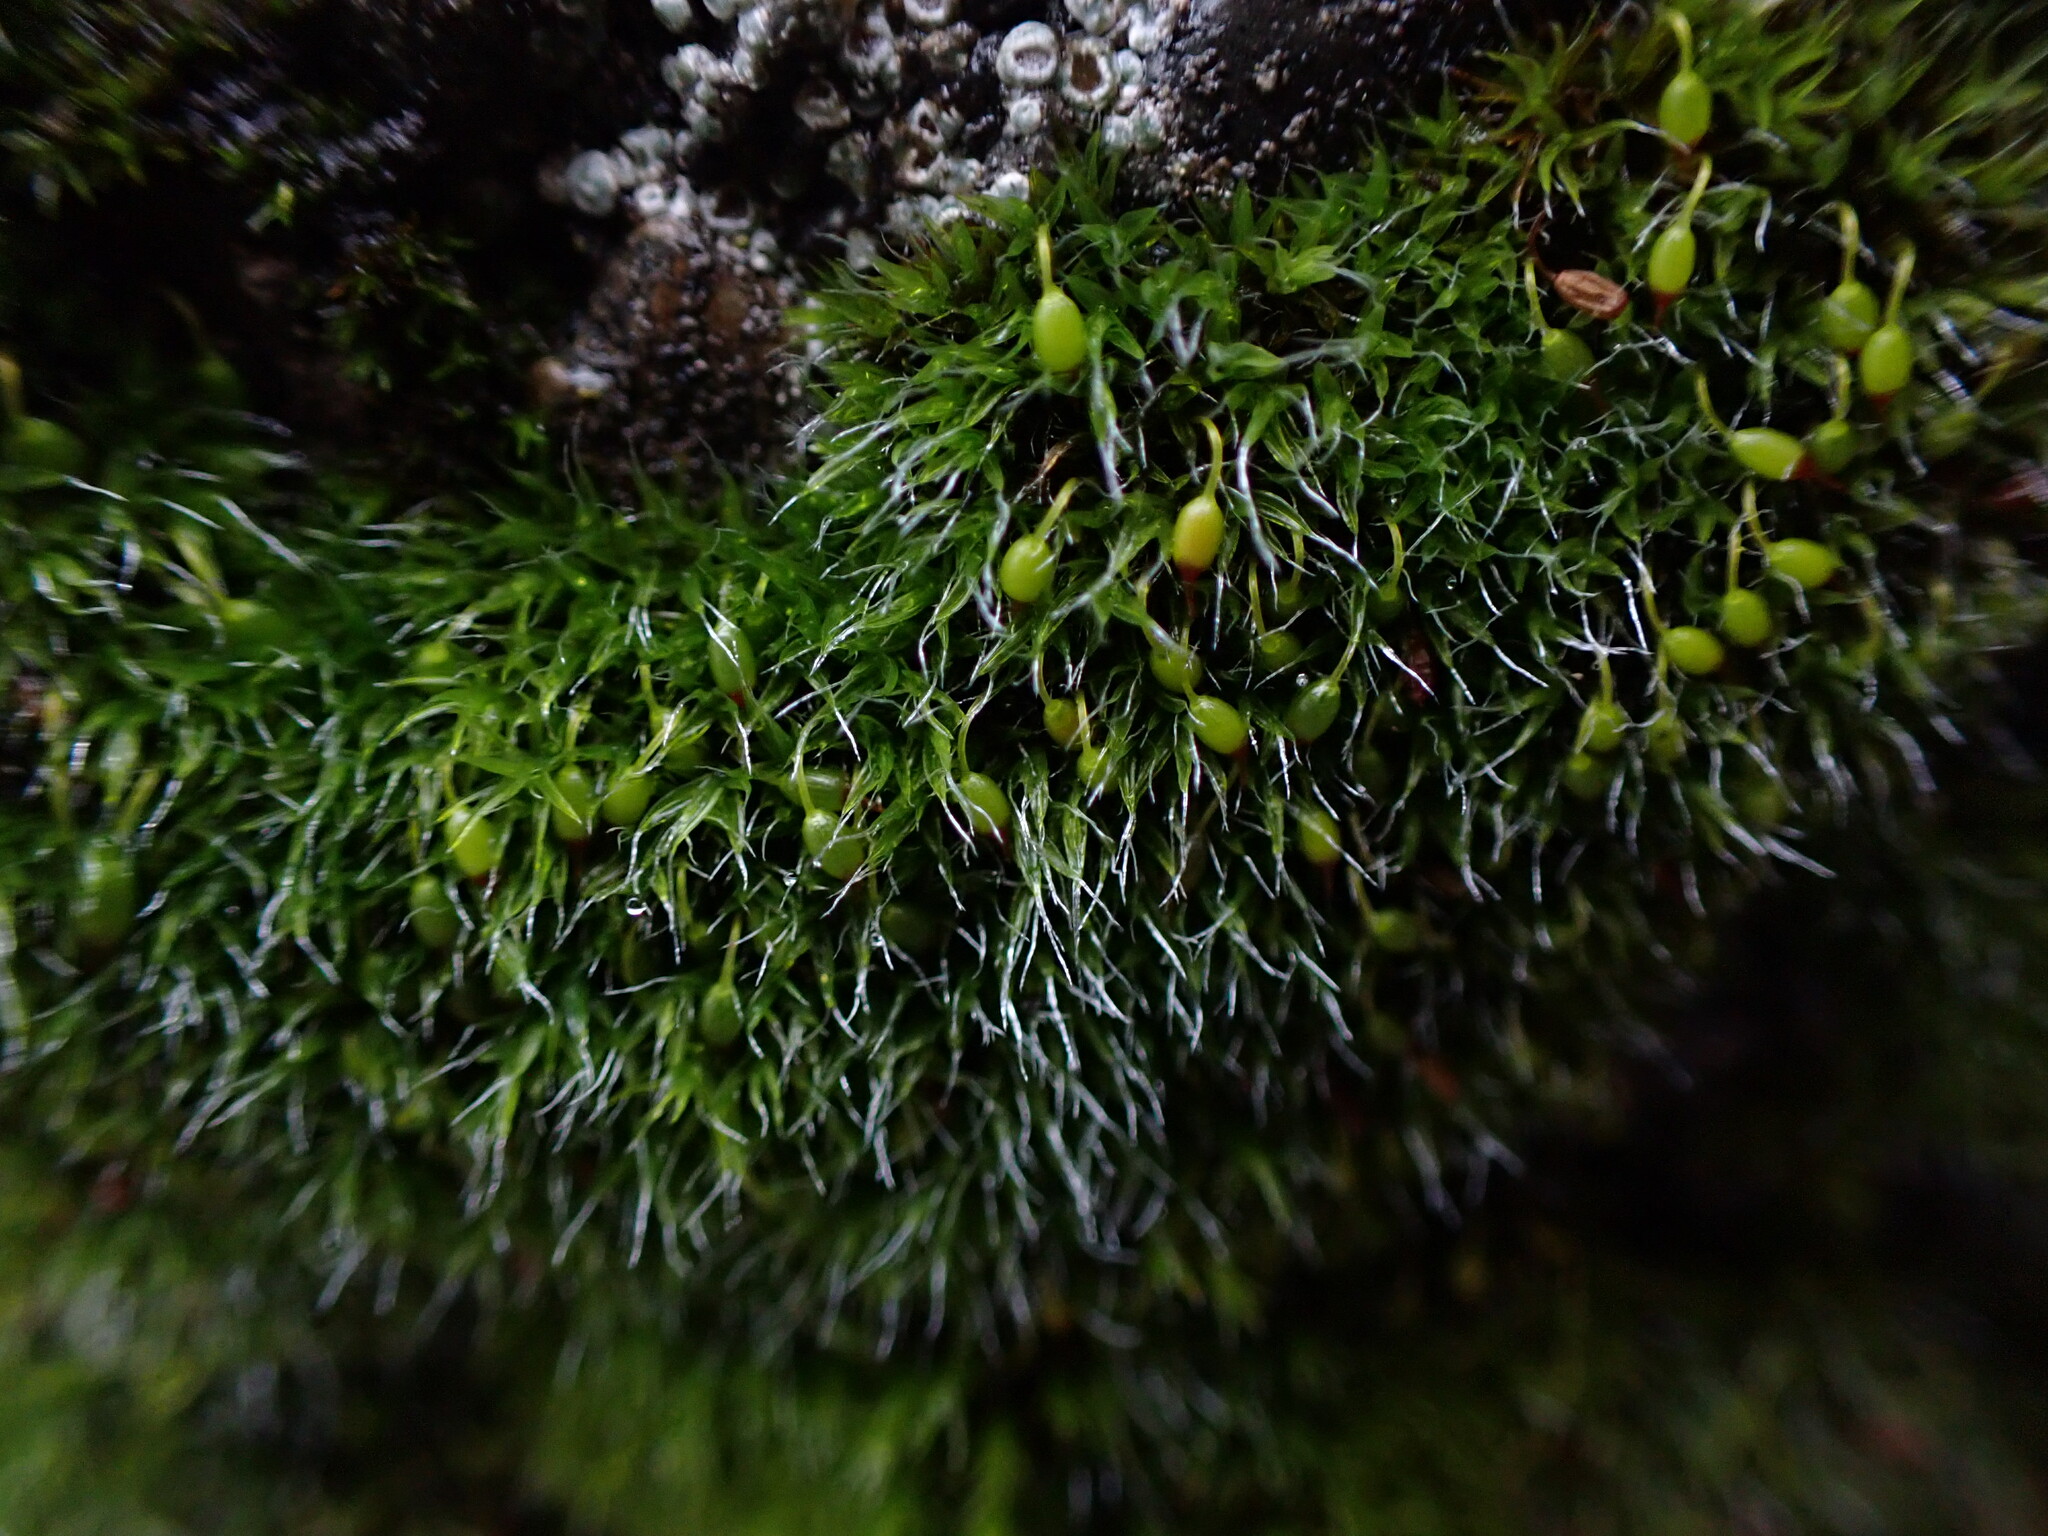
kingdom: Plantae
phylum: Bryophyta
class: Bryopsida
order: Grimmiales
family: Grimmiaceae
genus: Grimmia
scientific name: Grimmia pulvinata
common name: Grey-cushioned grimmia
